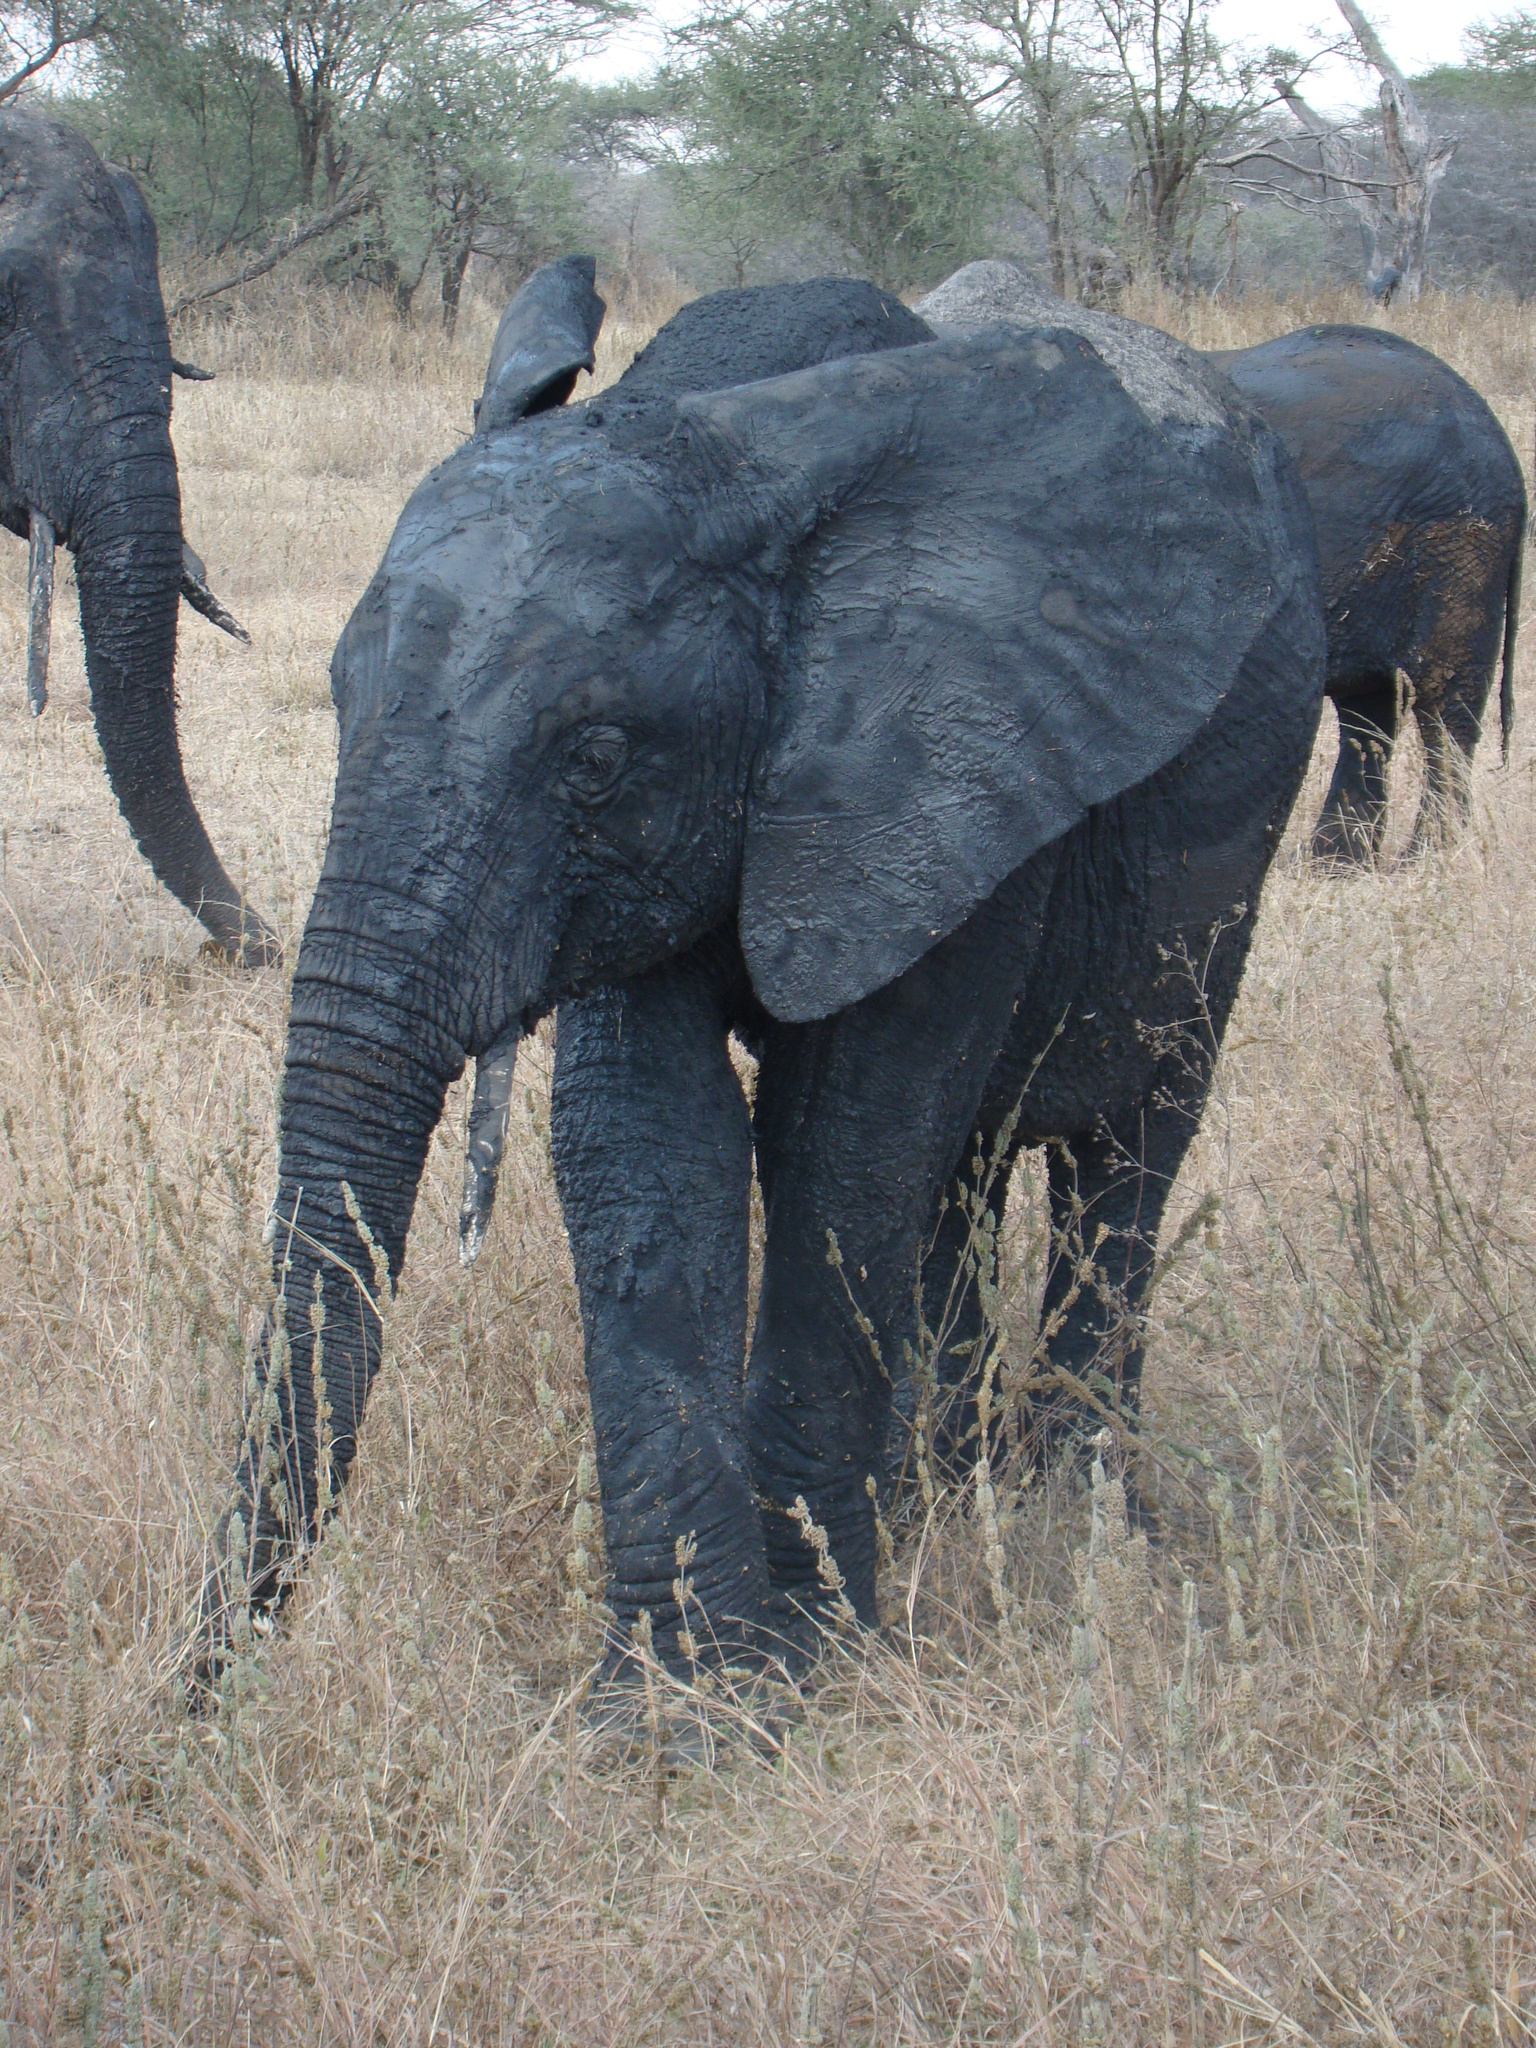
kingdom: Animalia
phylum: Chordata
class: Mammalia
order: Proboscidea
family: Elephantidae
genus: Loxodonta
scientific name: Loxodonta africana
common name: African elephant
